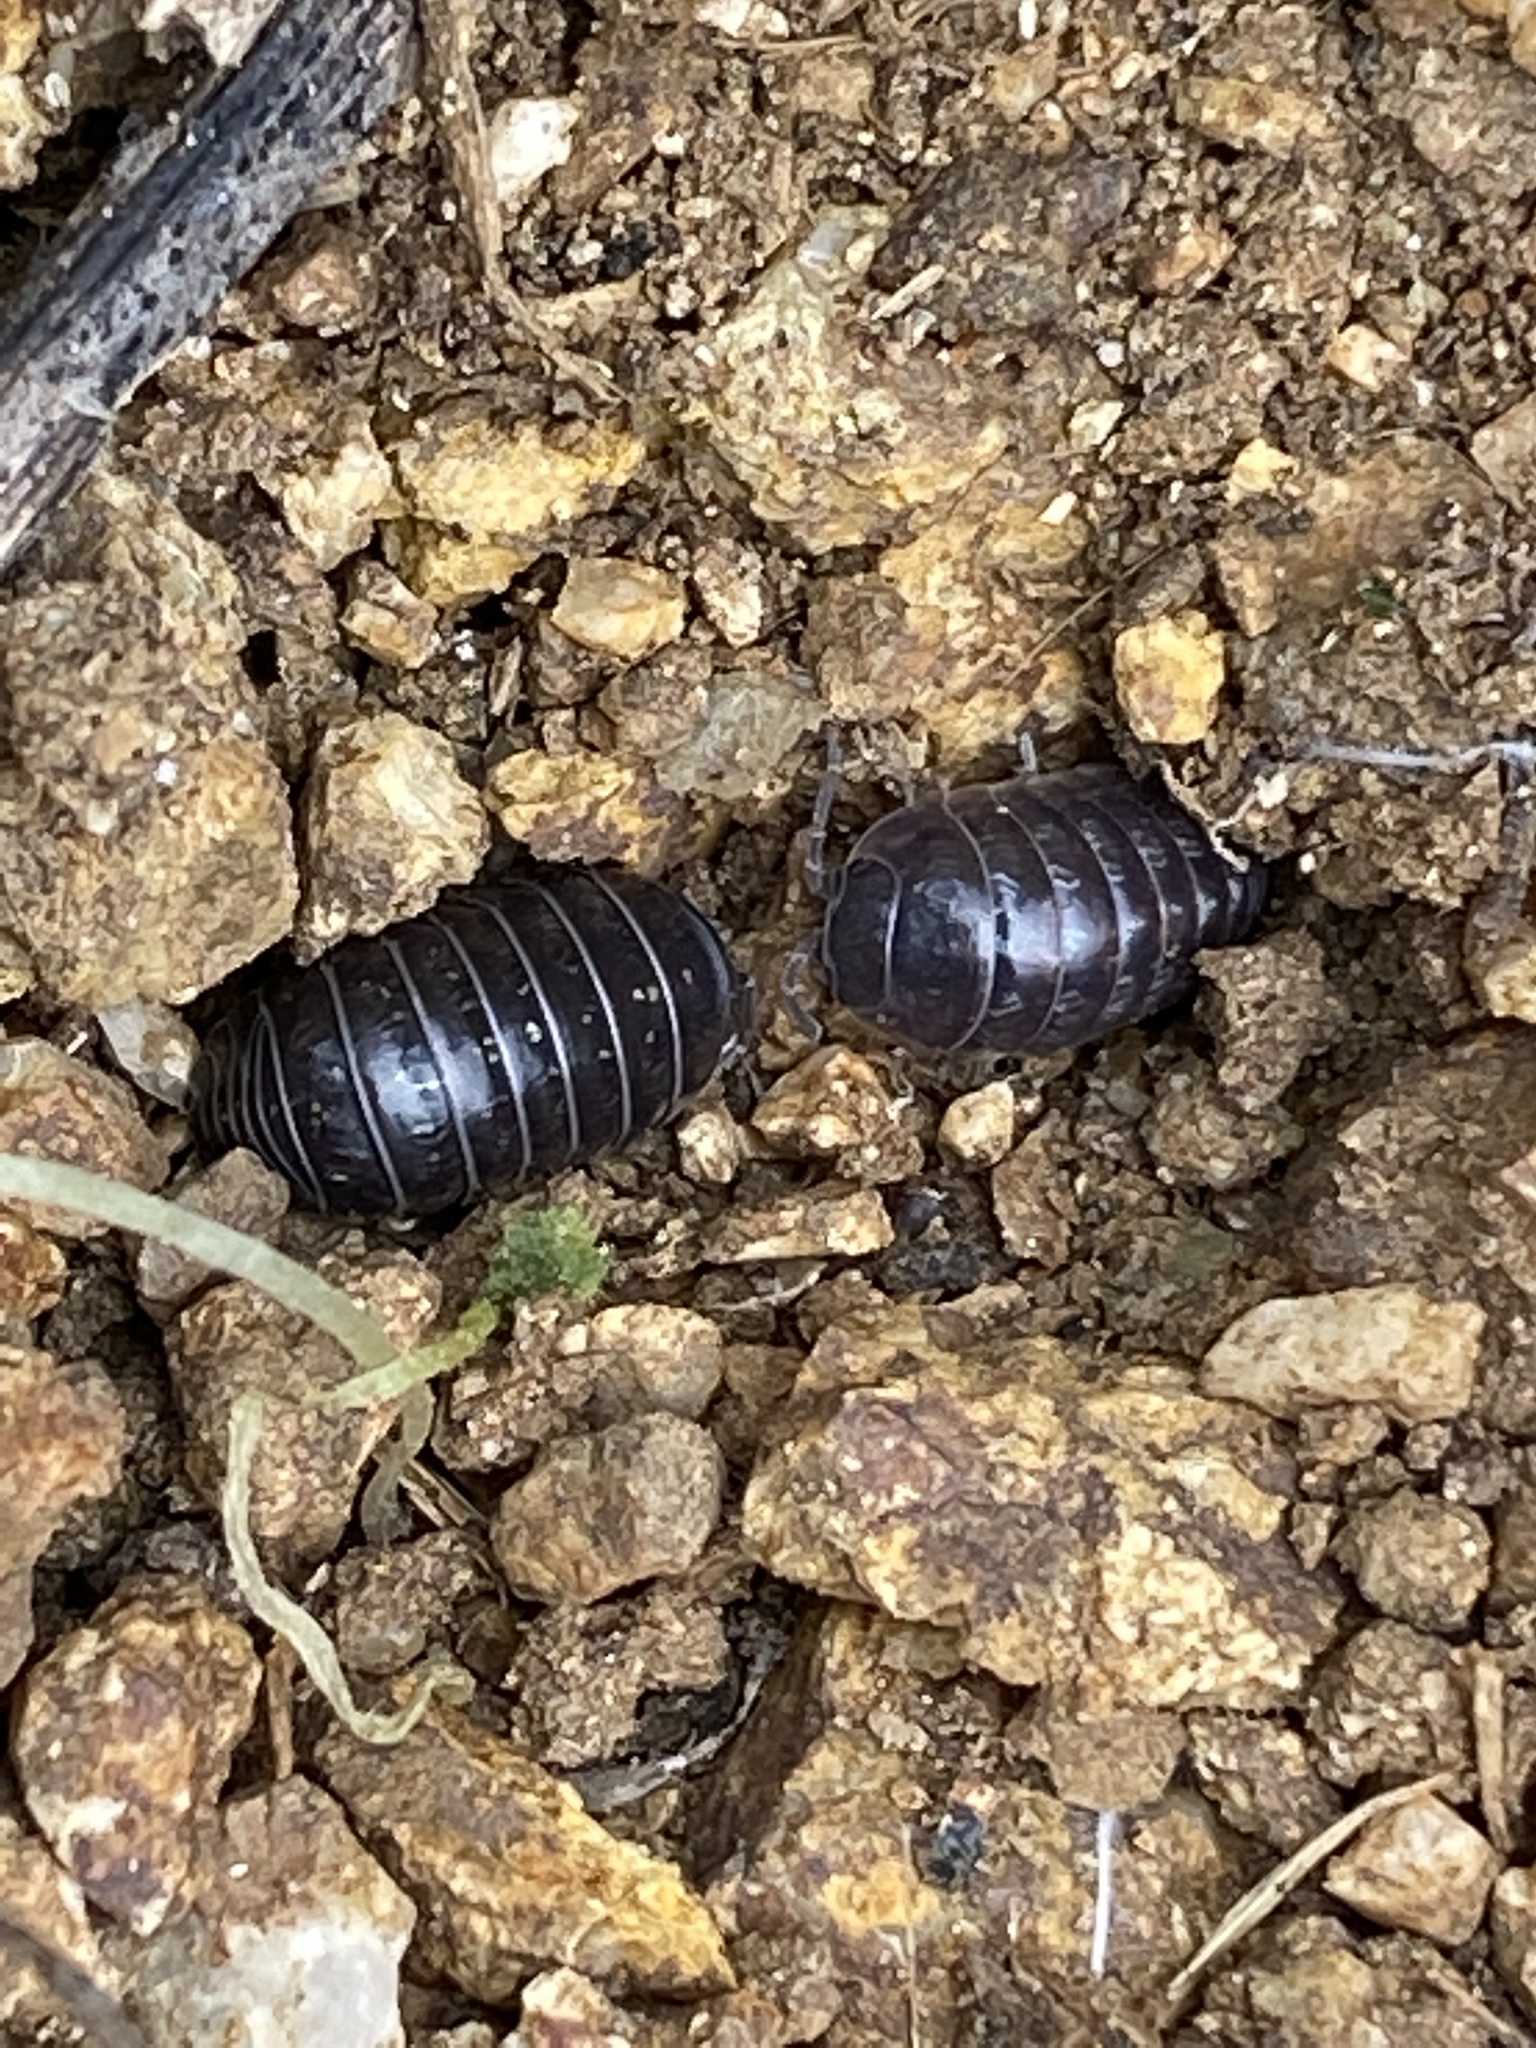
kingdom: Animalia
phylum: Arthropoda
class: Malacostraca
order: Isopoda
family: Armadillidiidae
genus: Armadillidium
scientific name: Armadillidium vulgare
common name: Common pill woodlouse
